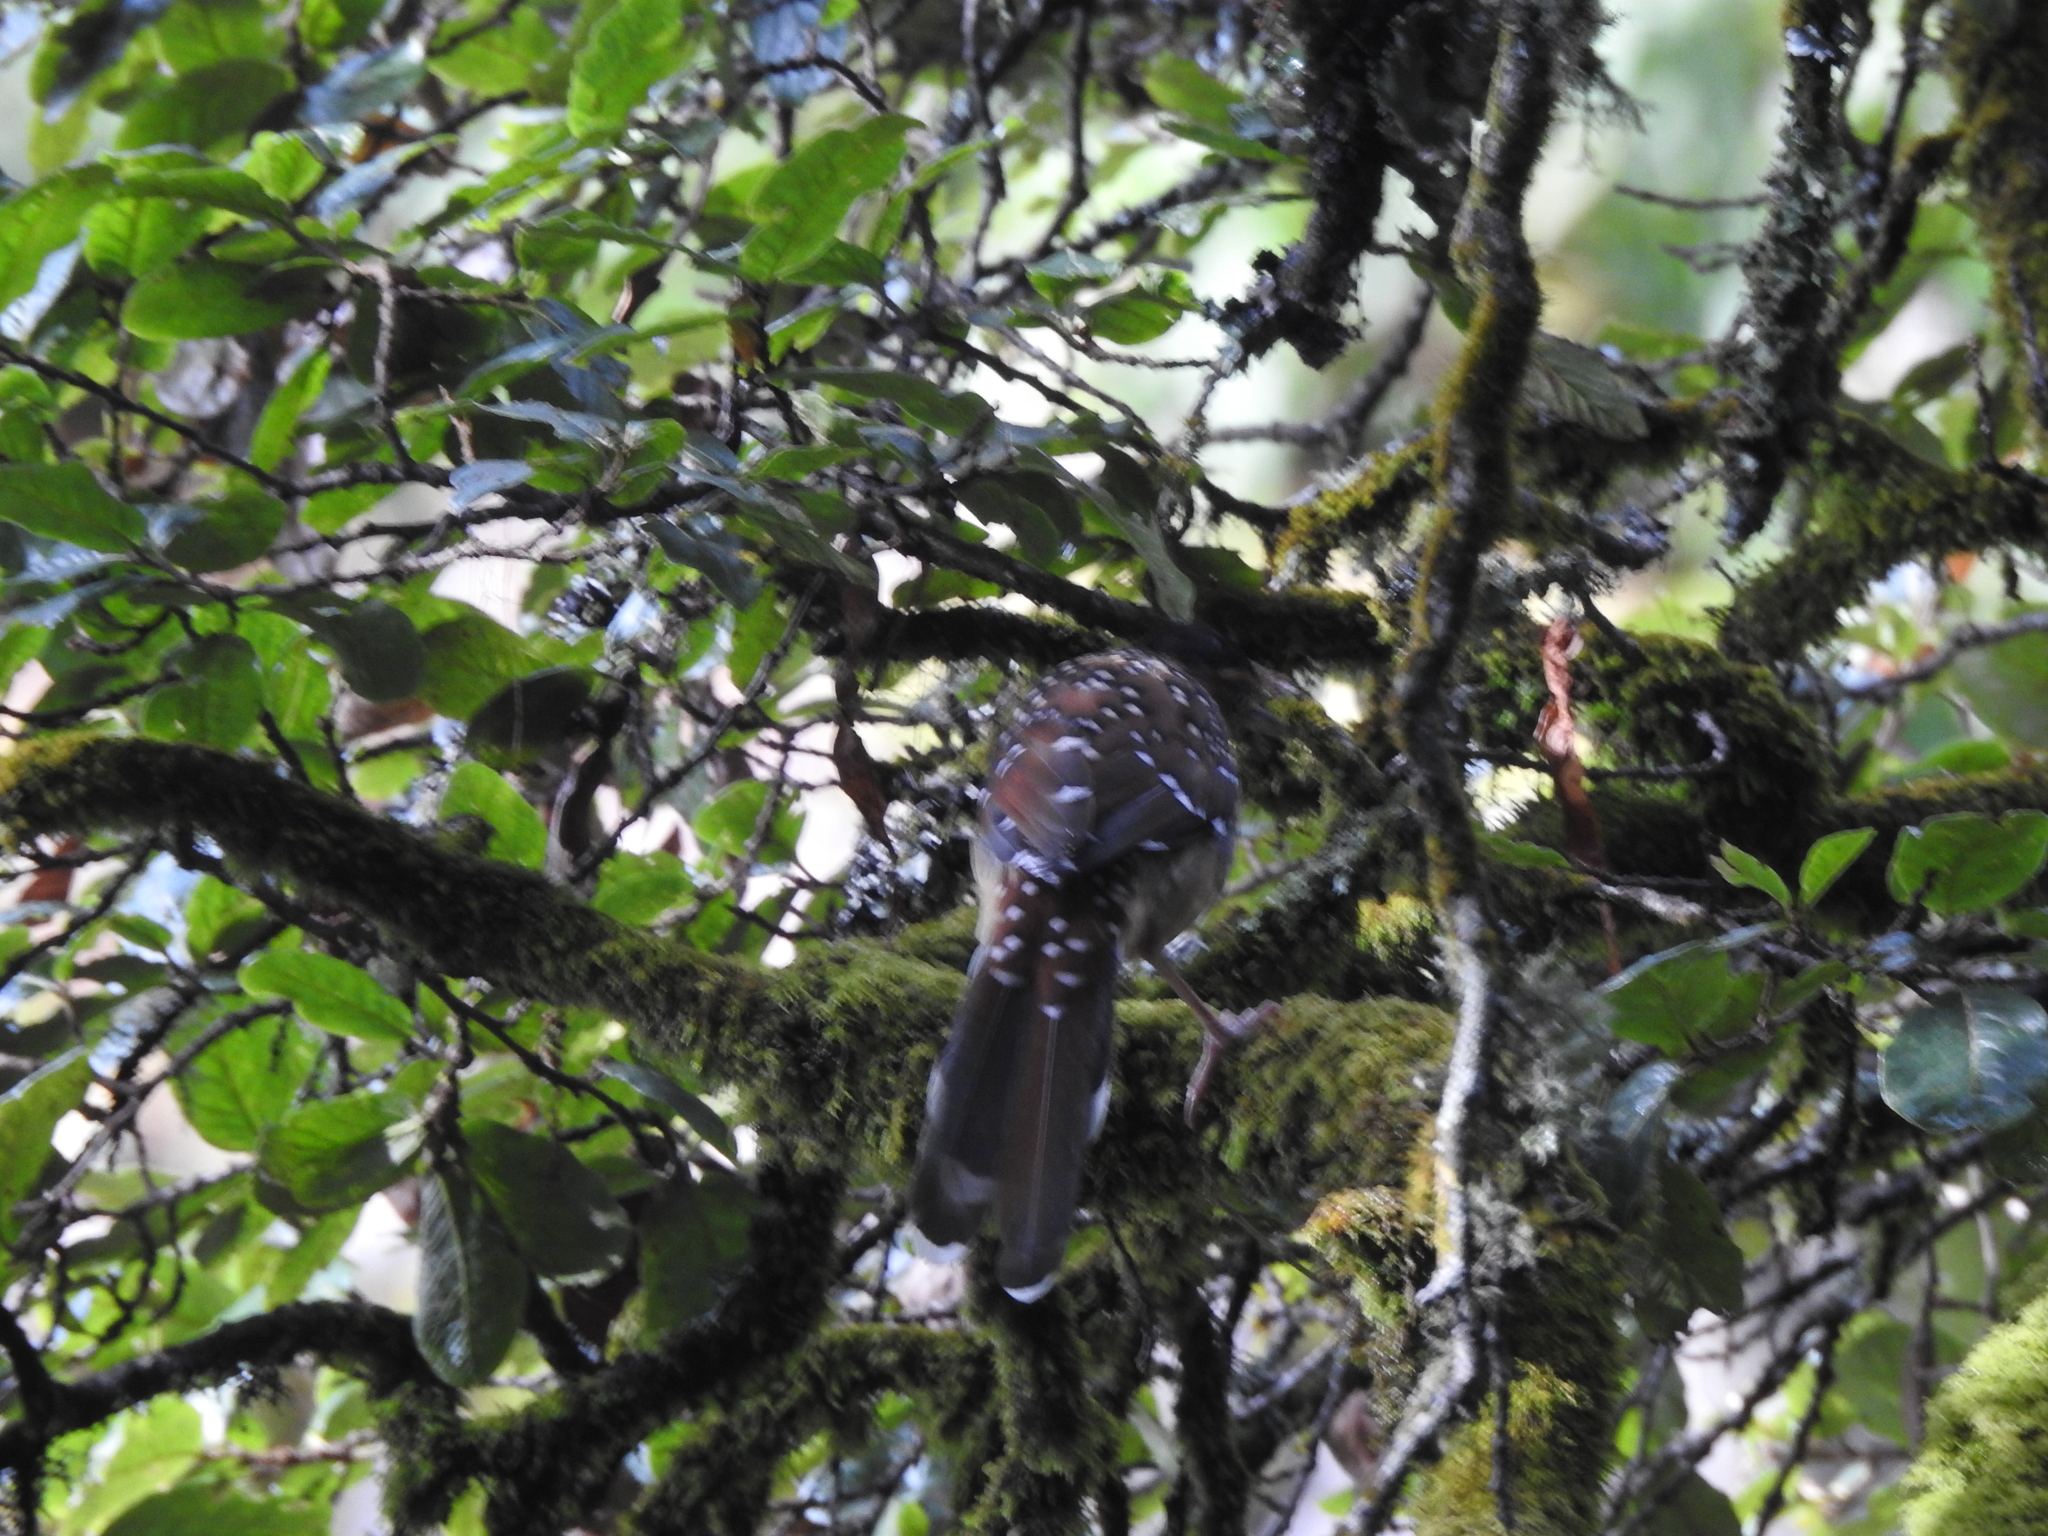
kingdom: Animalia
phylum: Chordata
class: Aves
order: Passeriformes
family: Leiothrichidae
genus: Garrulax
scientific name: Garrulax ocellatus
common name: Spotted laughingthrush
